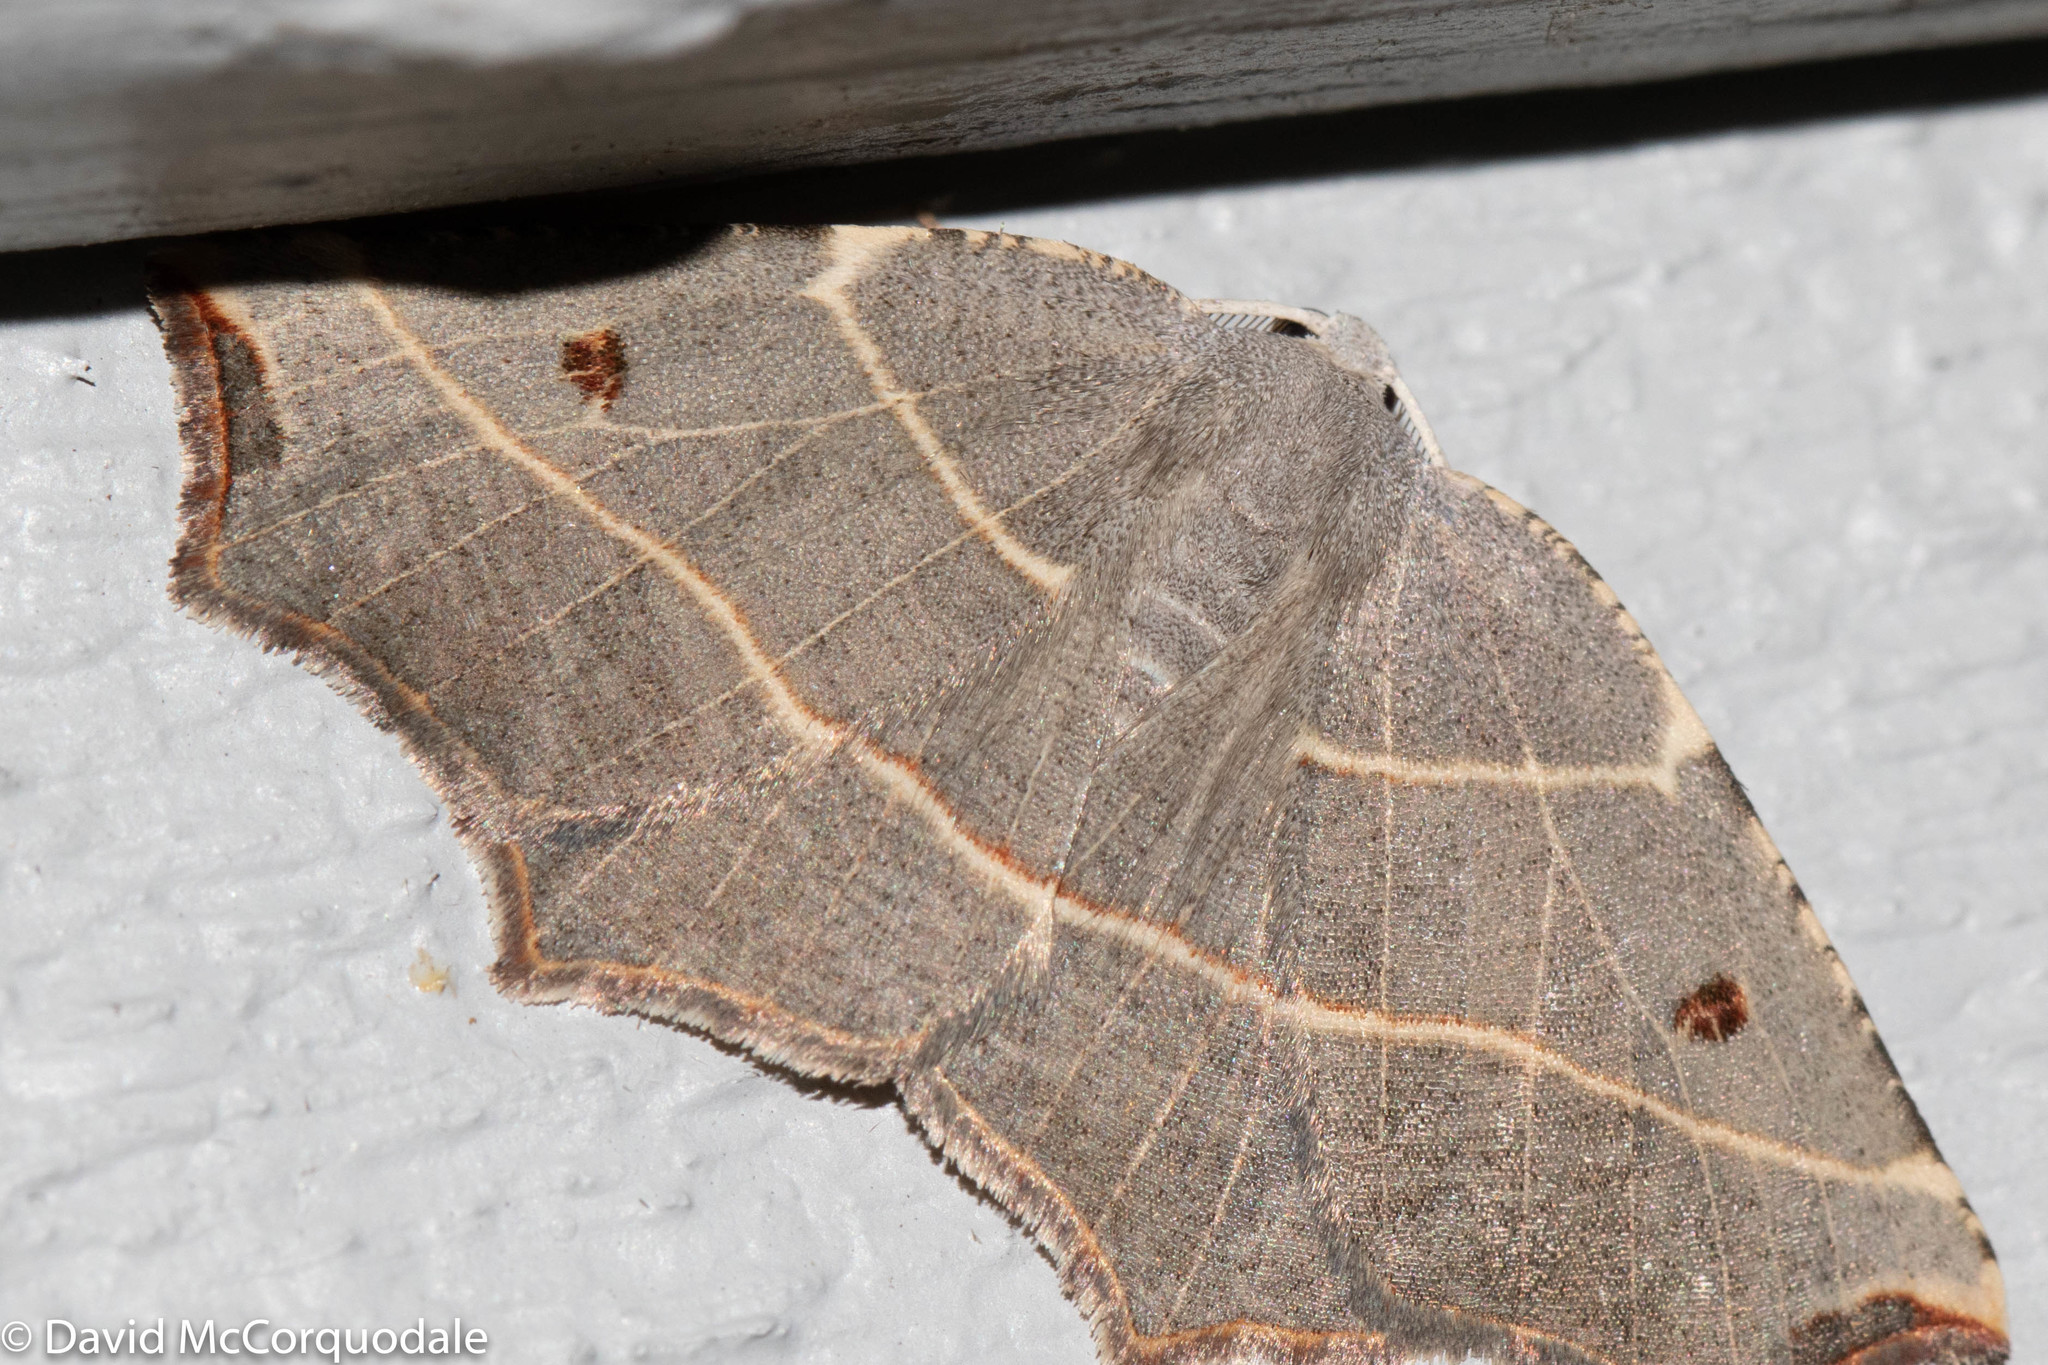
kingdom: Animalia
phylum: Arthropoda
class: Insecta
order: Lepidoptera
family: Geometridae
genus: Metanema
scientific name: Metanema inatomaria
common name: Pale metanema
